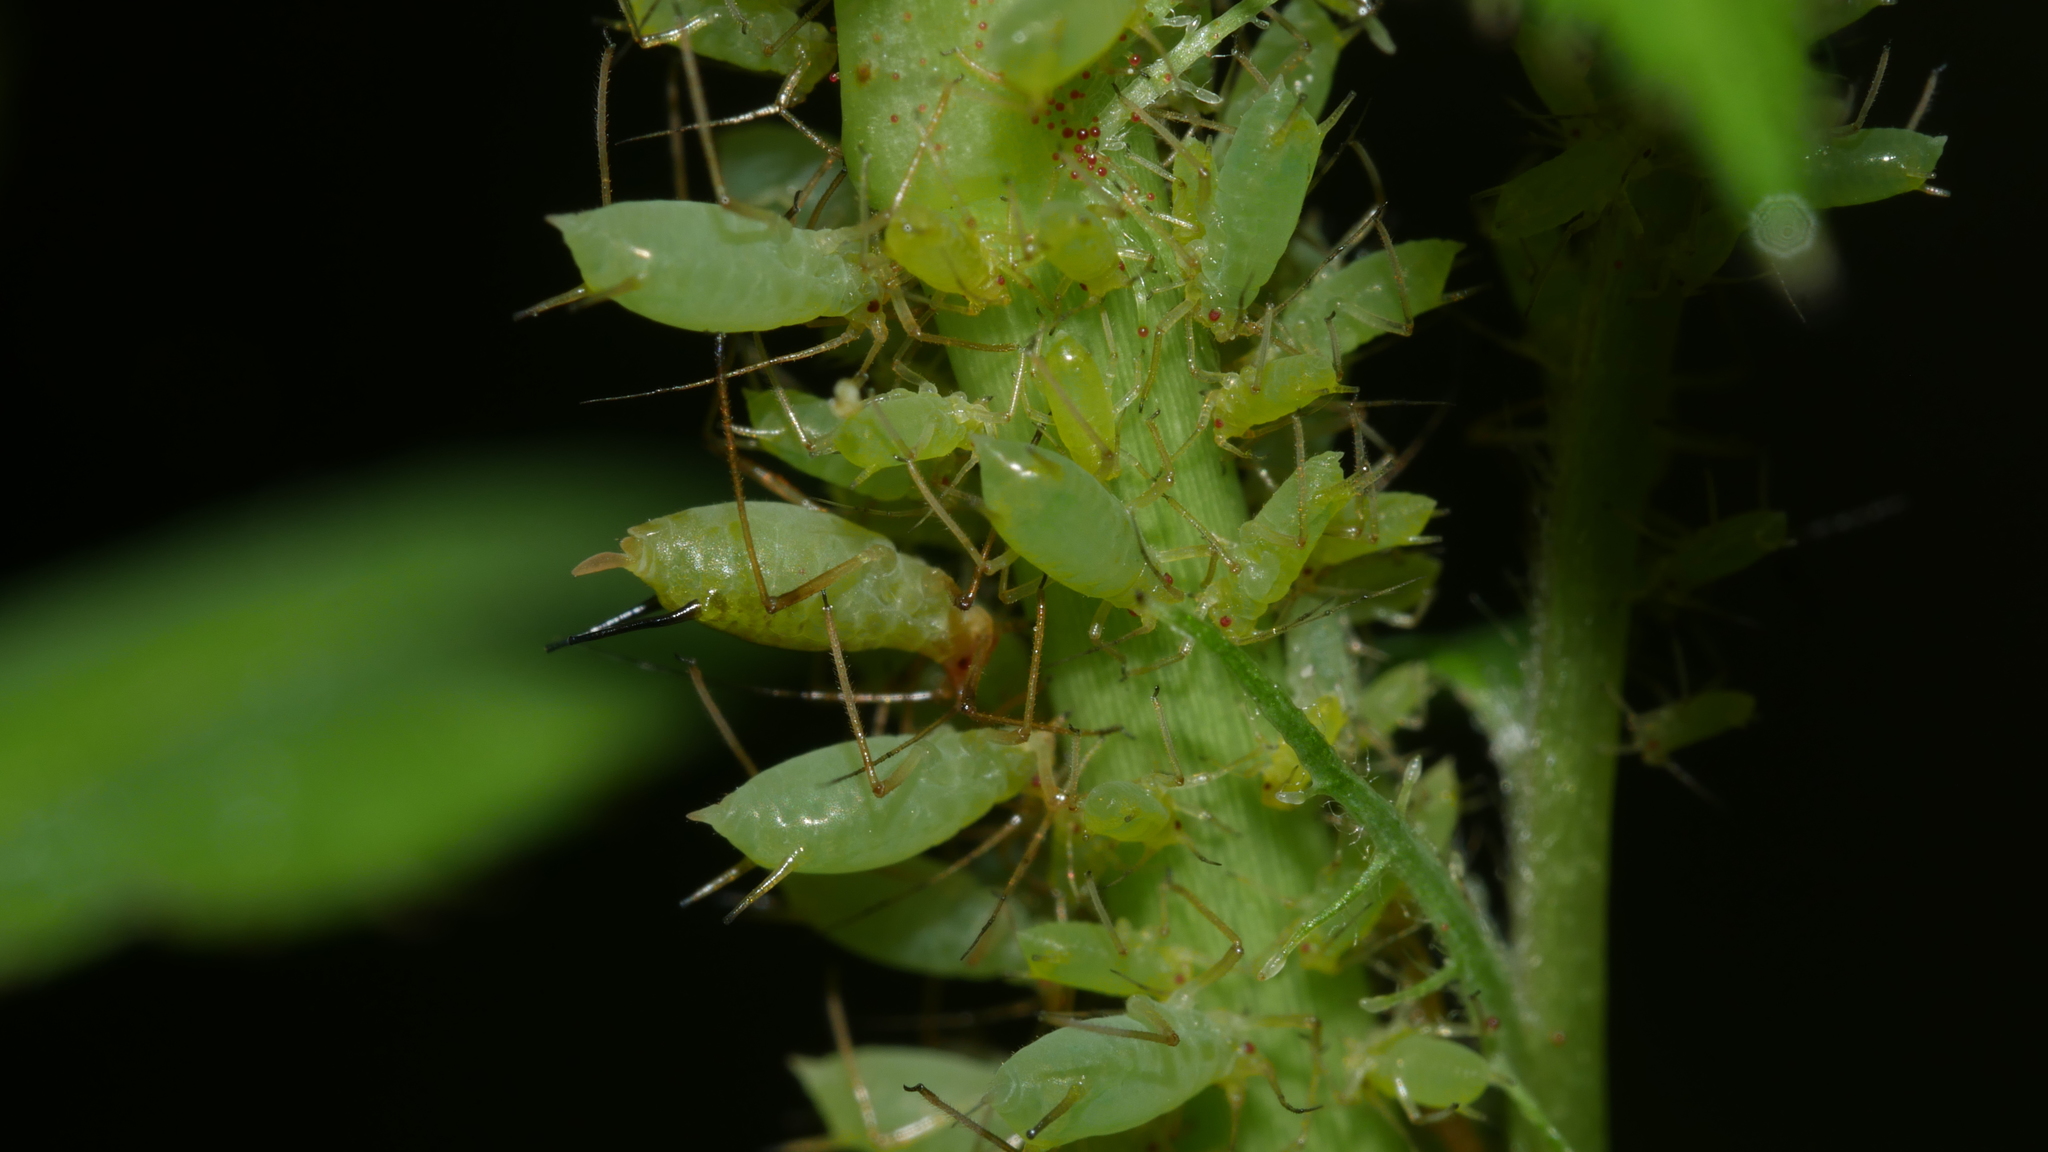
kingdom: Animalia
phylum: Arthropoda
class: Insecta
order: Hemiptera
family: Aphididae
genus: Macrosiphum
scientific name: Macrosiphum rosae
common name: Rose aphid
